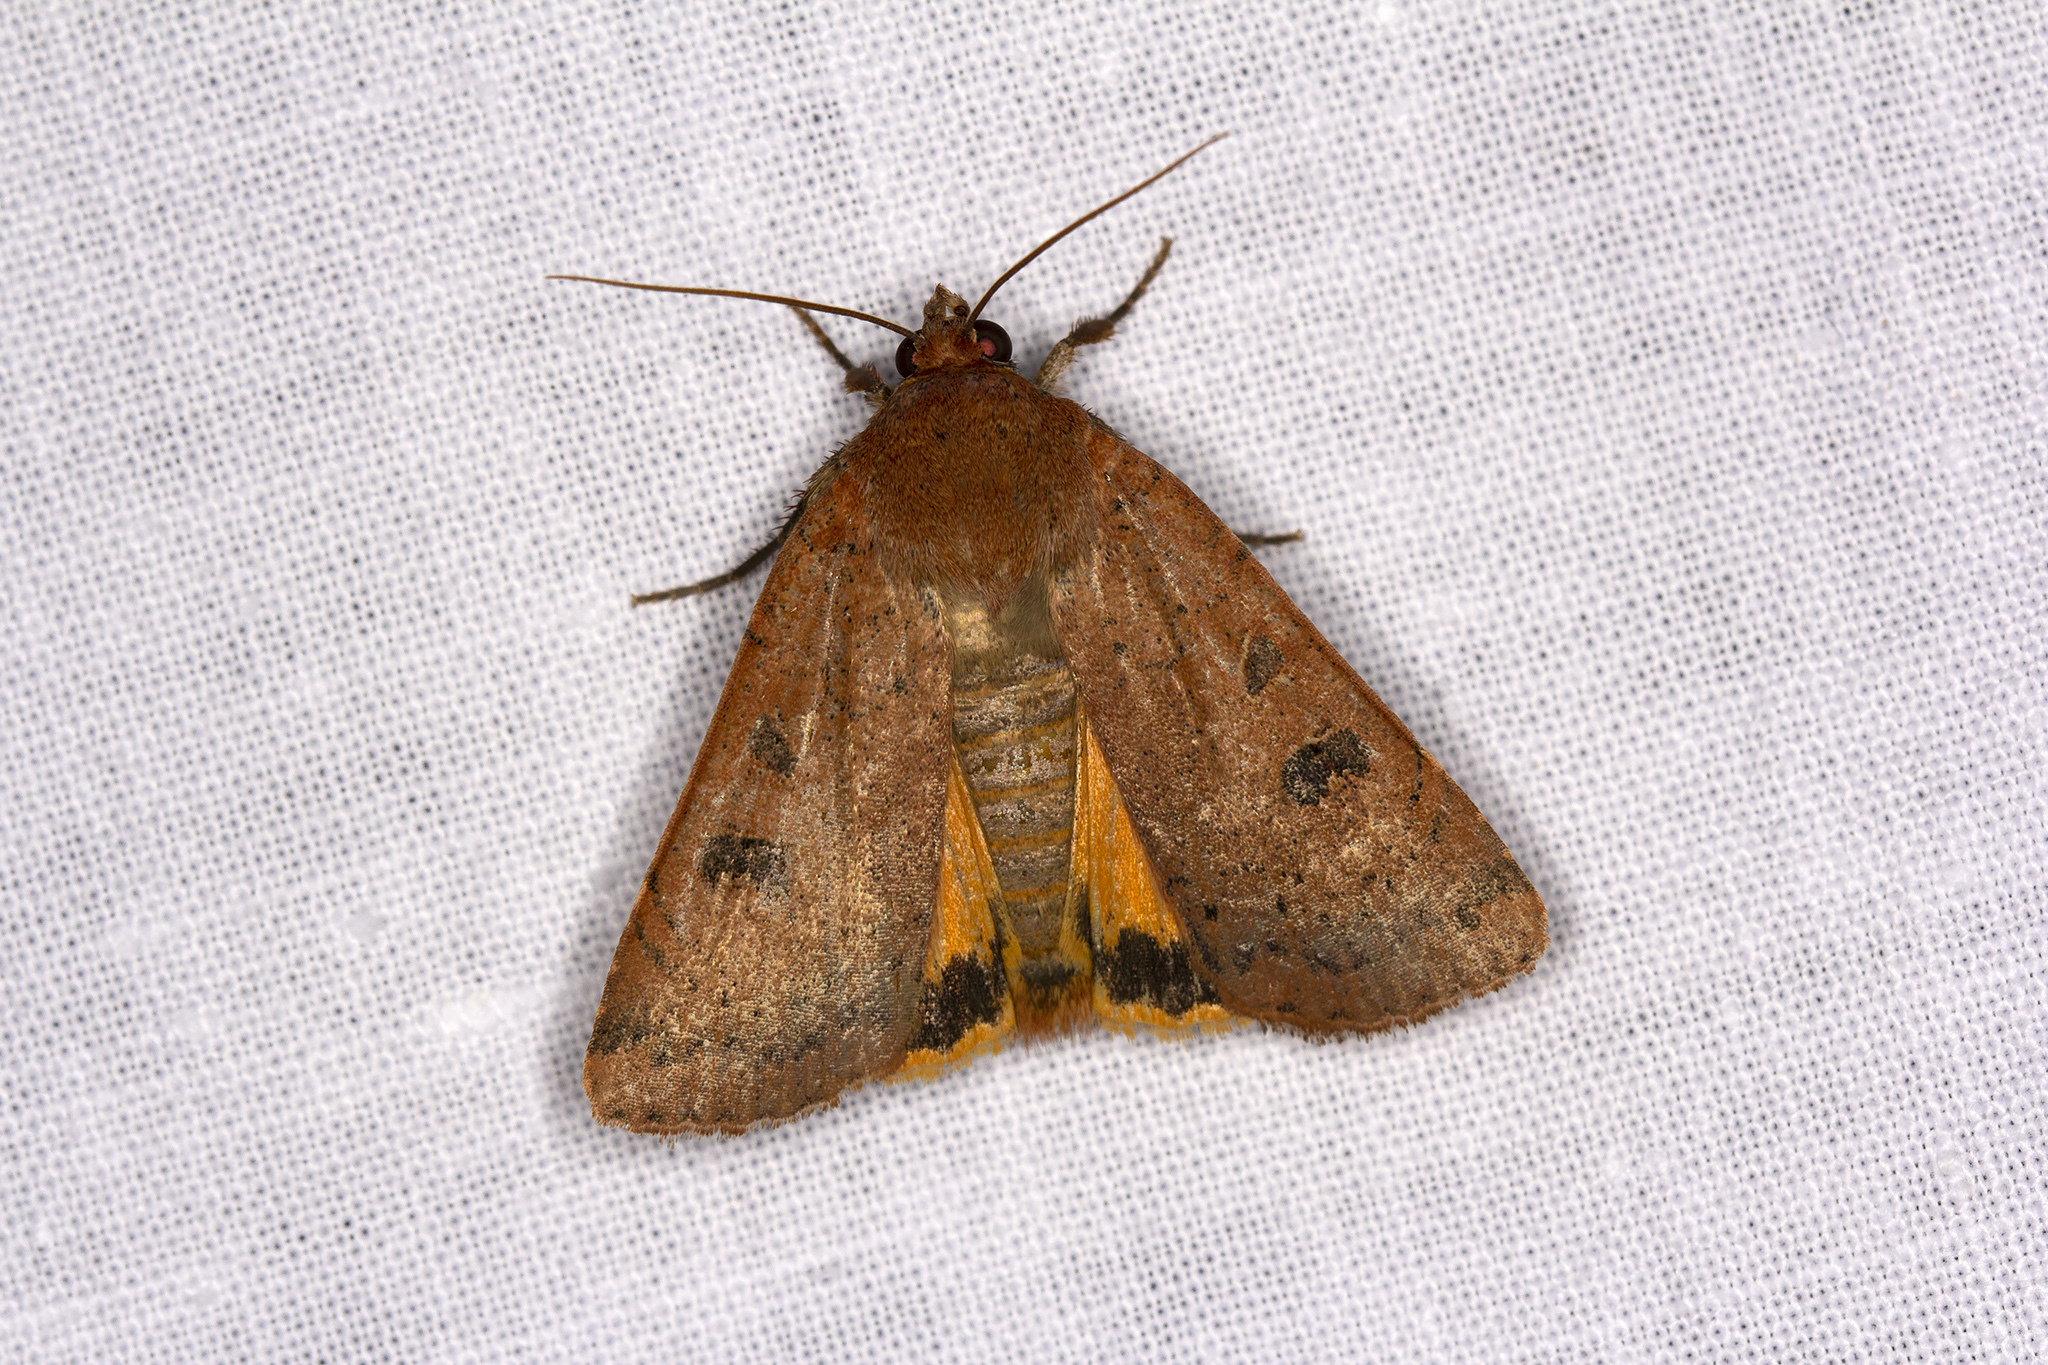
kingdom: Animalia
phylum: Arthropoda
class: Insecta
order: Lepidoptera
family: Noctuidae
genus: Noctua
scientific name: Noctua comes
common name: Lesser yellow underwing
